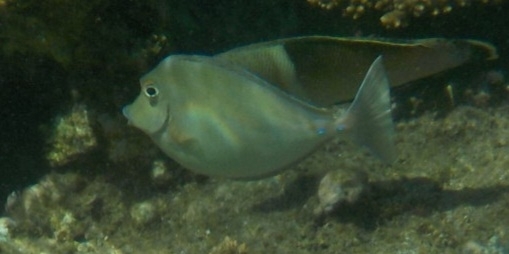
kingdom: Animalia
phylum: Chordata
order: Perciformes
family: Acanthuridae
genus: Naso
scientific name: Naso unicornis
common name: Bluespine unicornfish
